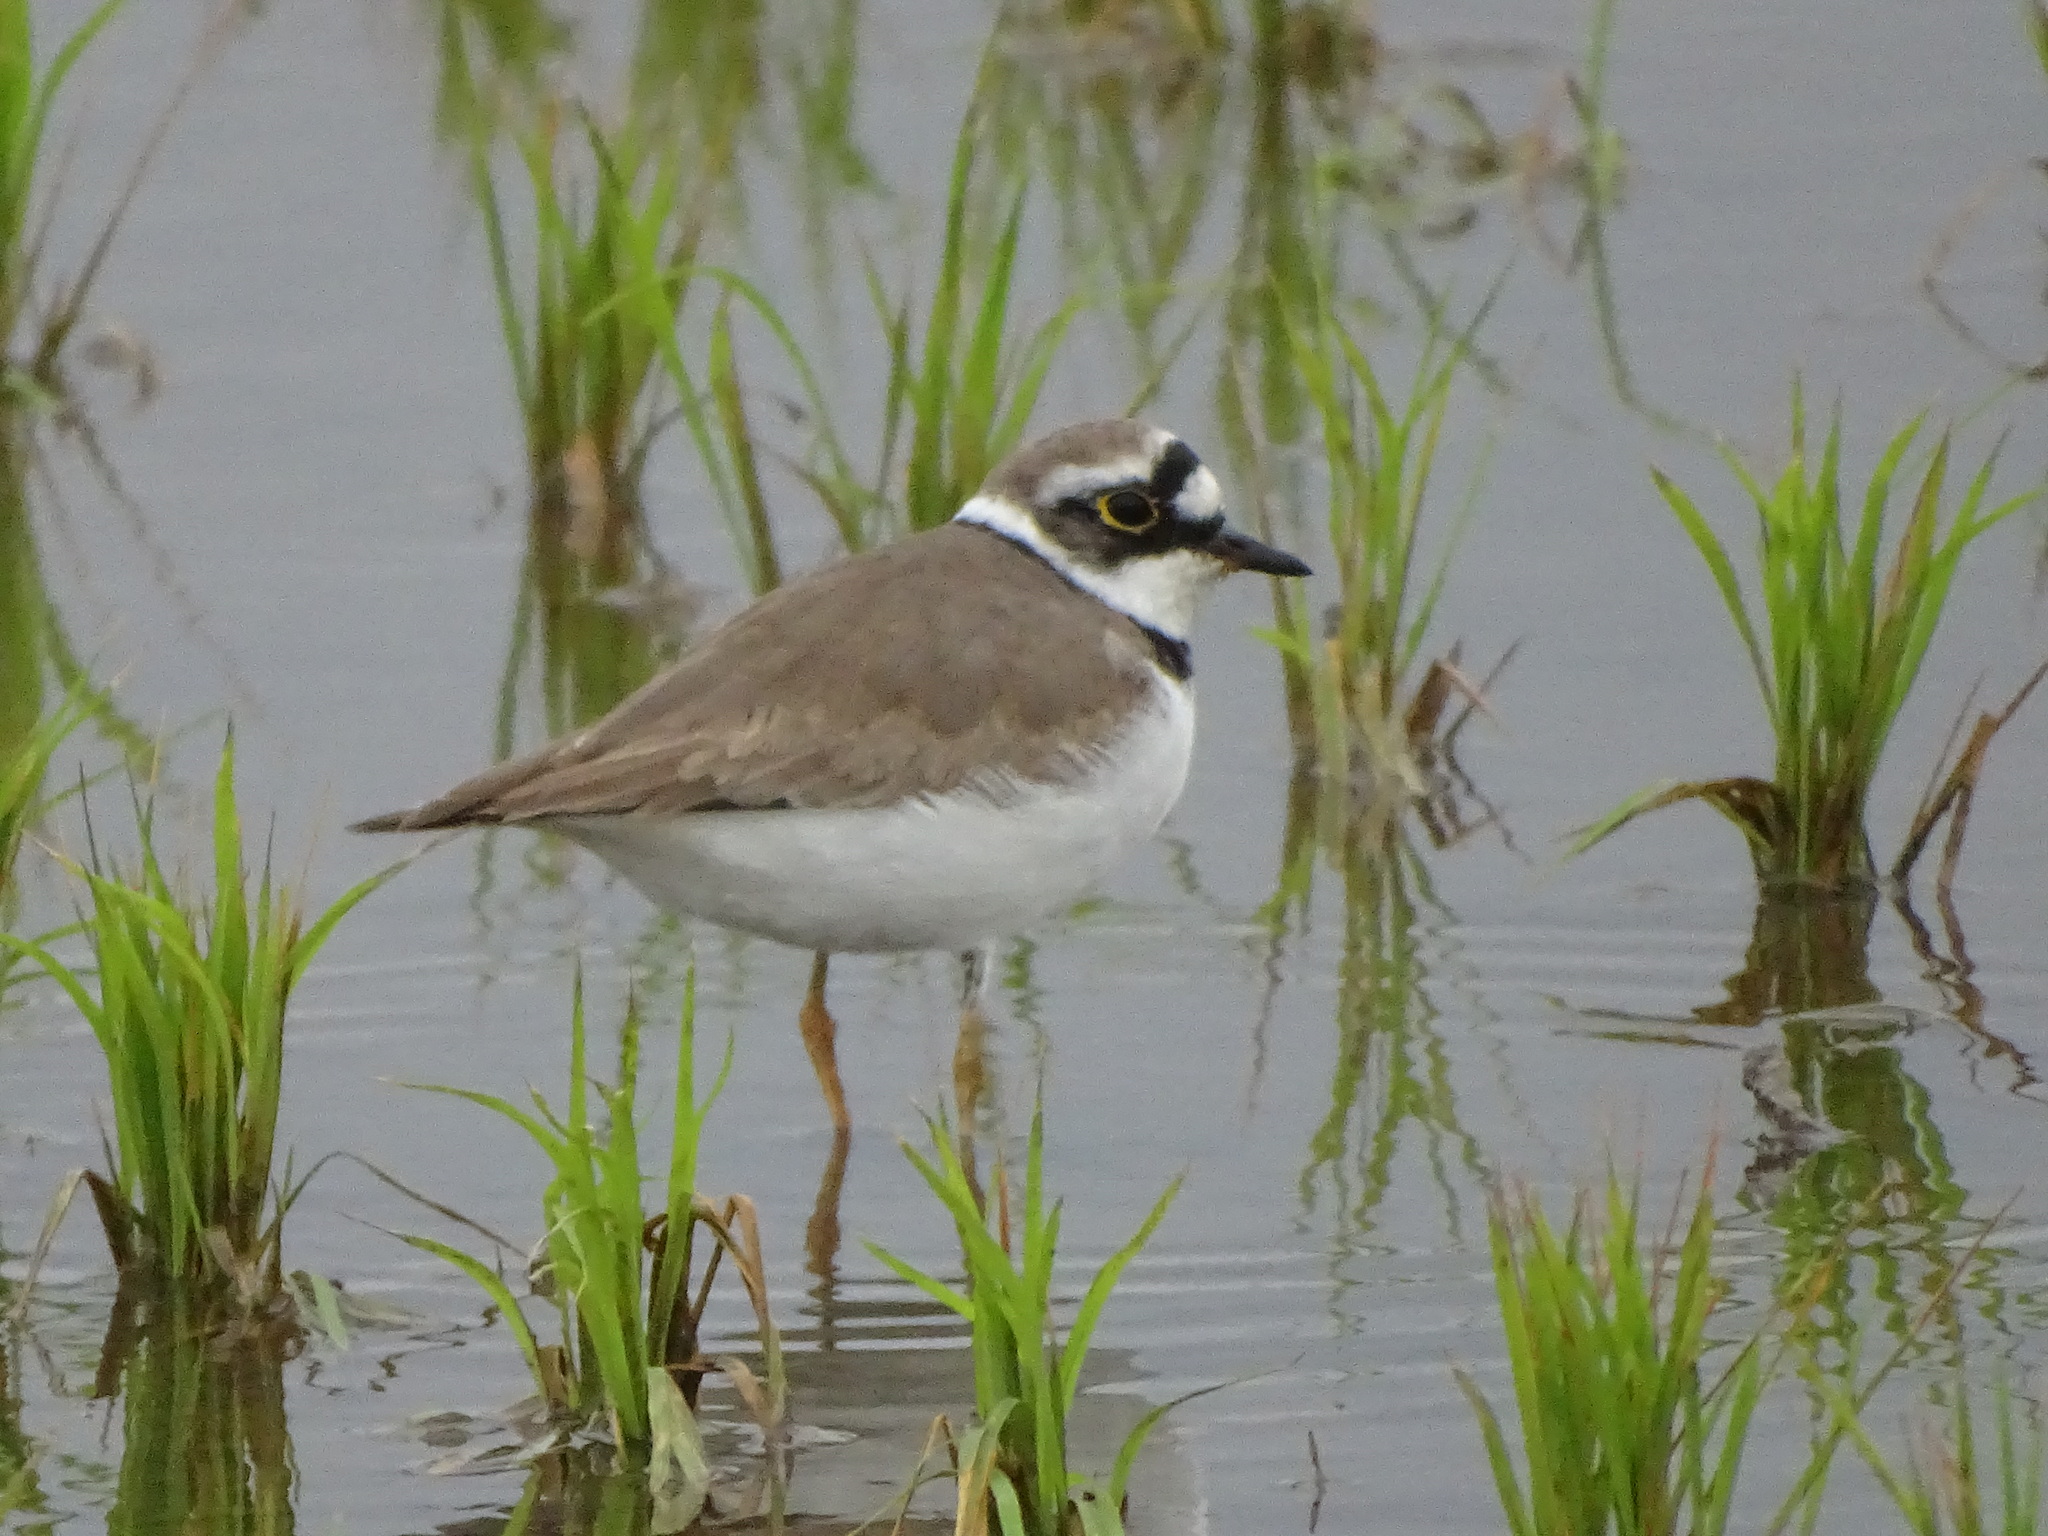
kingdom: Animalia
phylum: Chordata
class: Aves
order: Charadriiformes
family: Charadriidae
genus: Charadrius
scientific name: Charadrius dubius
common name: Little ringed plover
